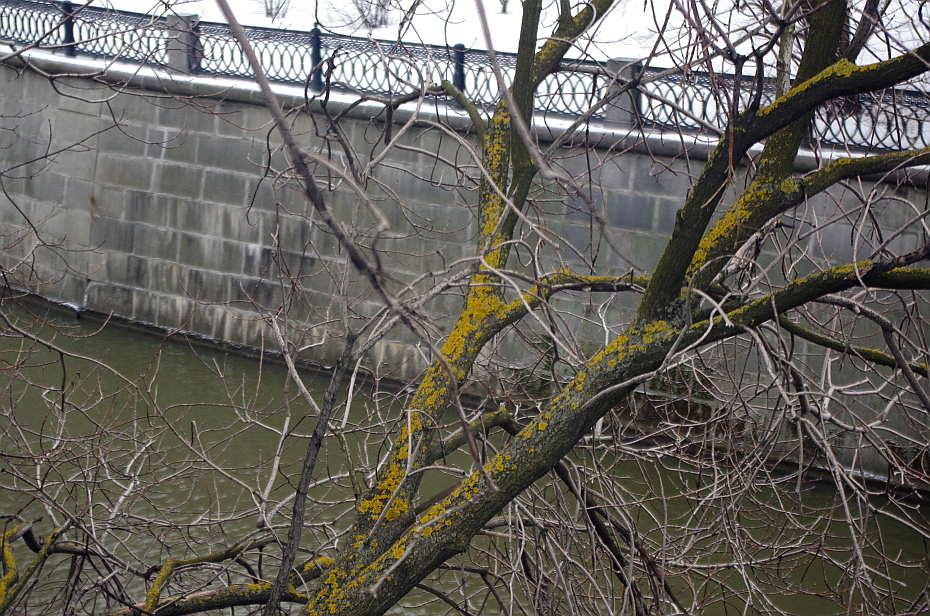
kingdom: Fungi
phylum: Ascomycota
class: Lecanoromycetes
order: Teloschistales
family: Teloschistaceae
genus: Xanthoria
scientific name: Xanthoria parietina
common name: Common orange lichen
